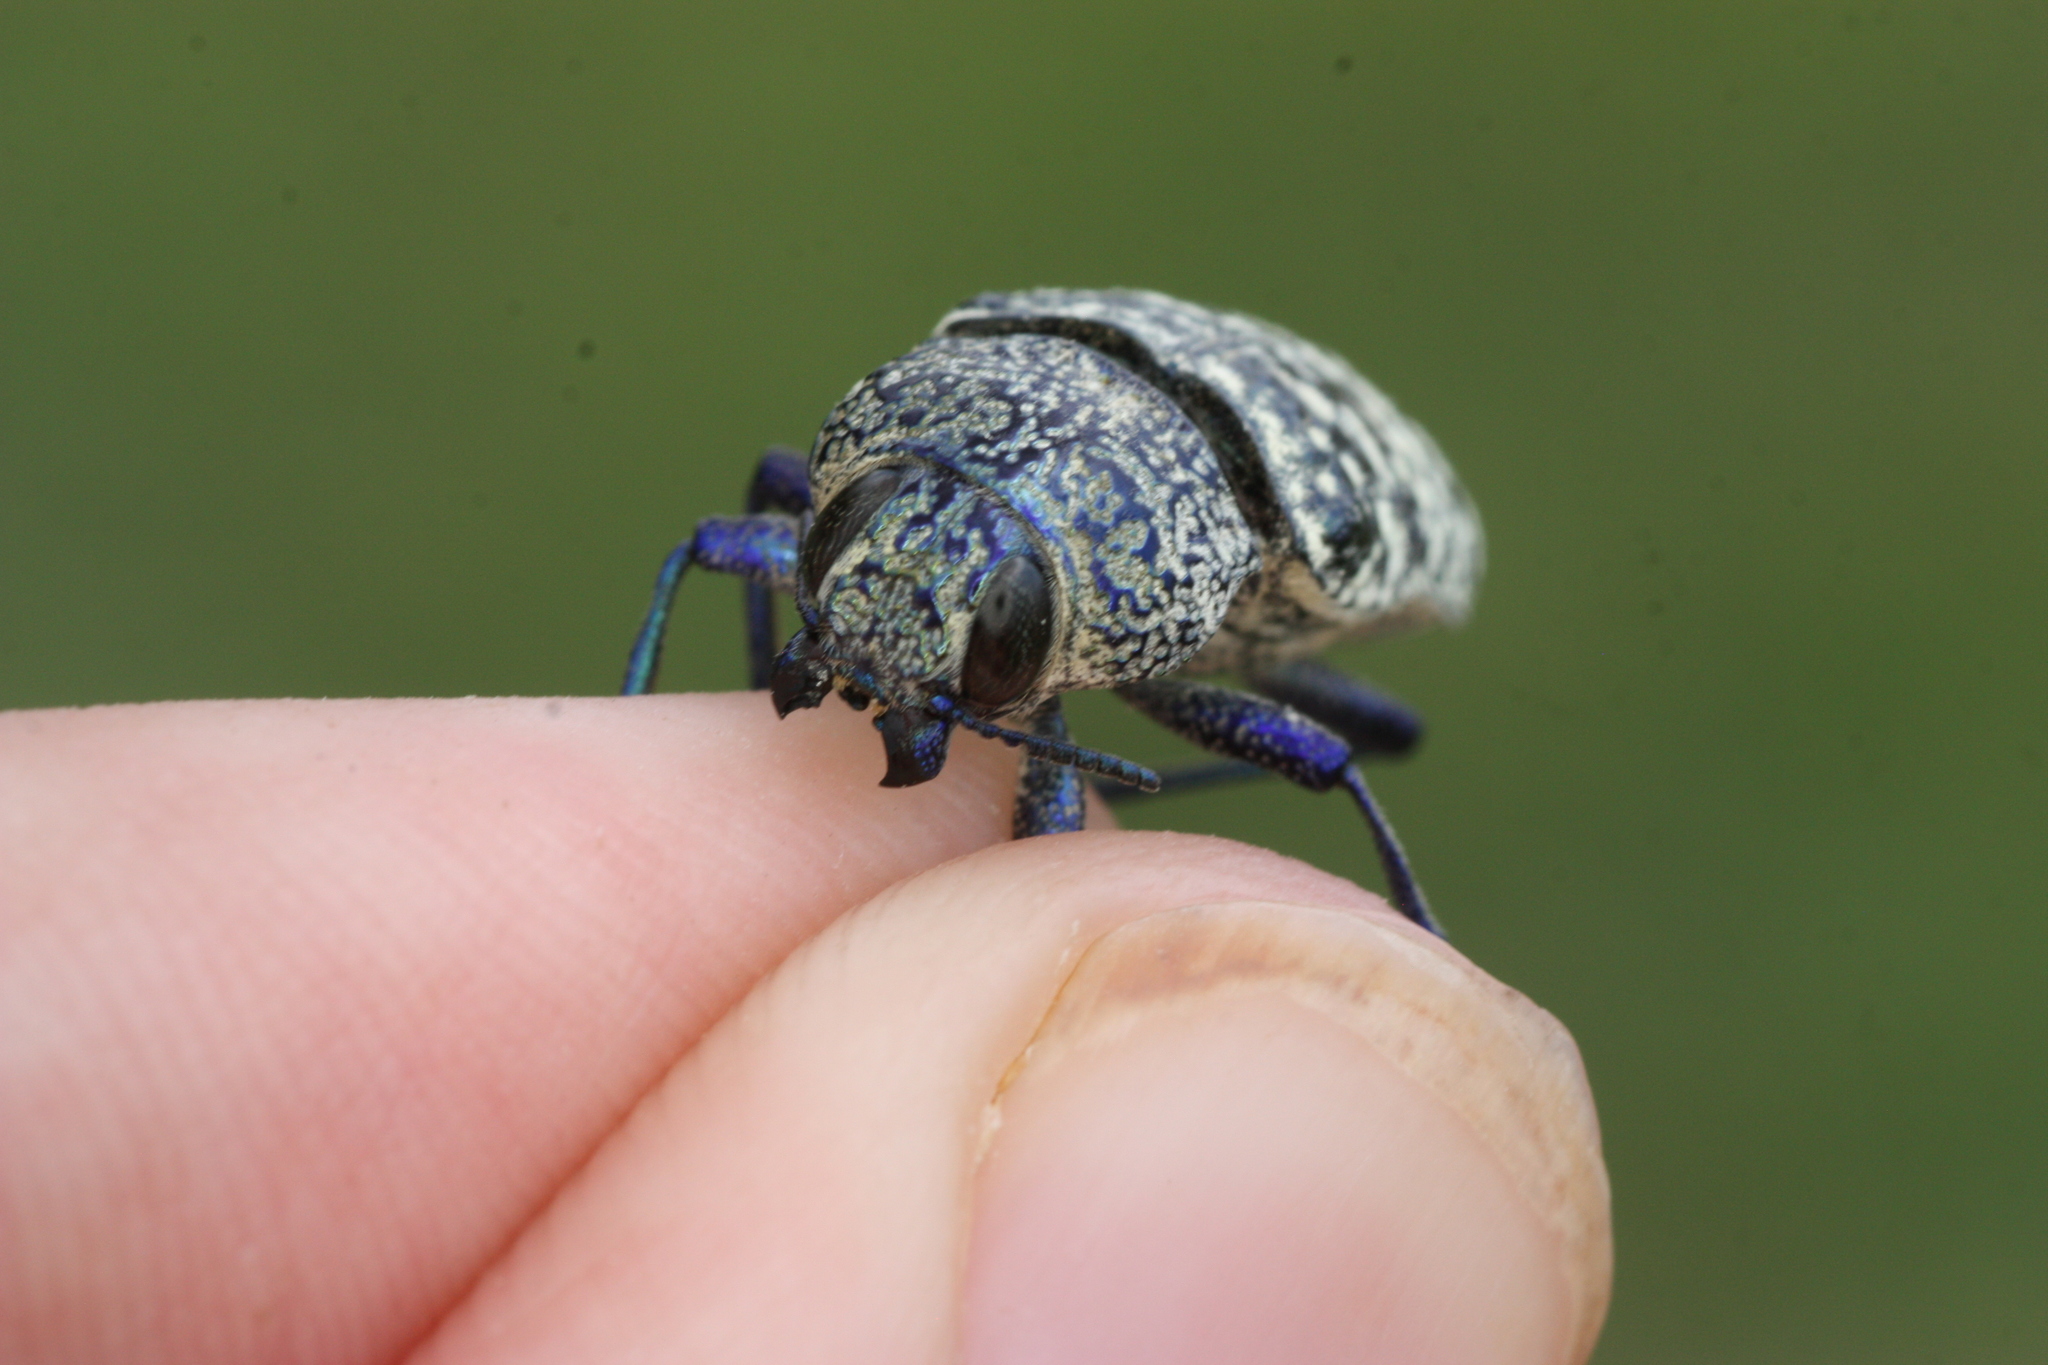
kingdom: Animalia
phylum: Arthropoda
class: Insecta
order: Coleoptera
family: Buprestidae
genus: Lampetis
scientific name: Lampetis drummondi
